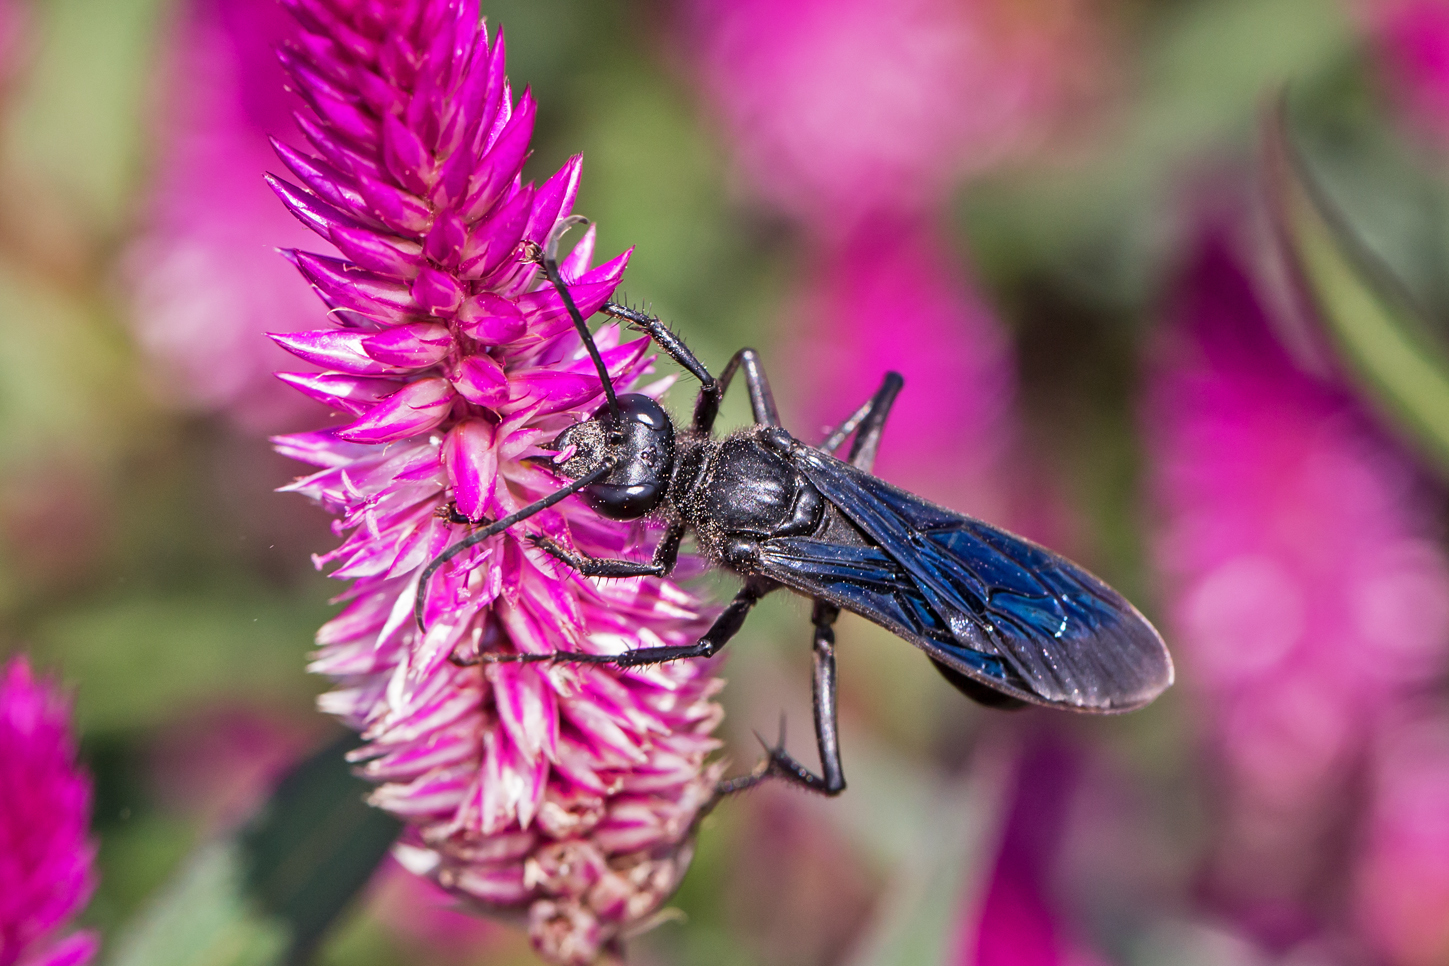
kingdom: Animalia
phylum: Arthropoda
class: Insecta
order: Hymenoptera
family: Sphecidae
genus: Sphex
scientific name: Sphex pensylvanicus
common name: Great black digger wasp
